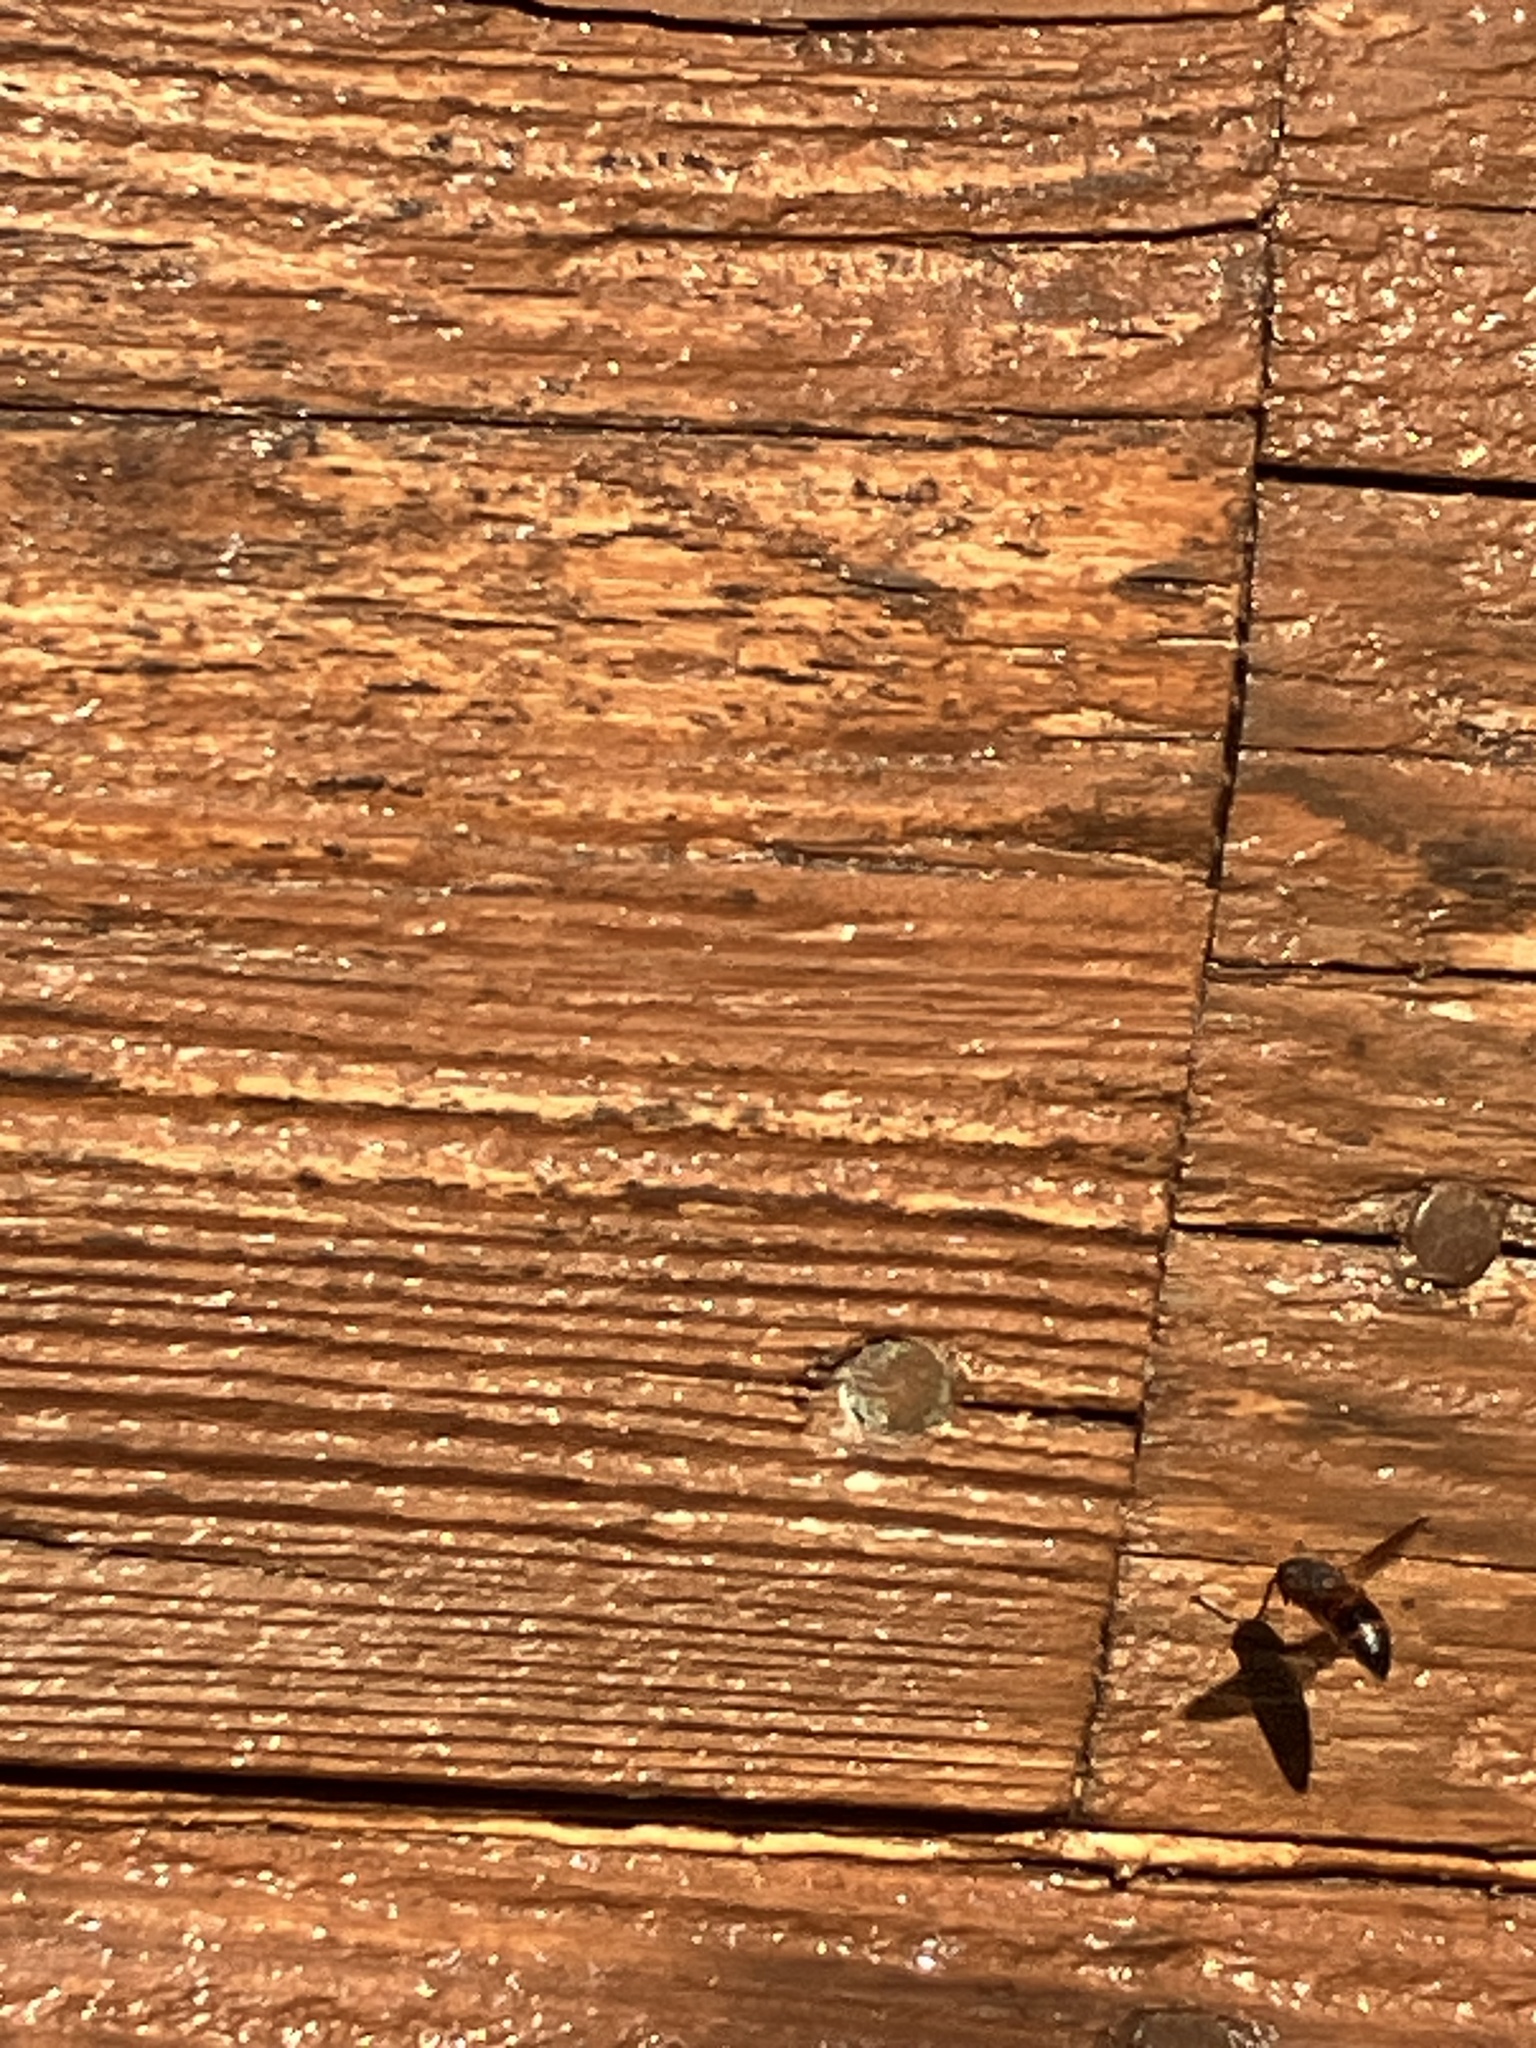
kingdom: Animalia
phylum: Arthropoda
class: Insecta
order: Hymenoptera
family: Eumenidae
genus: Pachodynerus
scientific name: Pachodynerus erynnis
